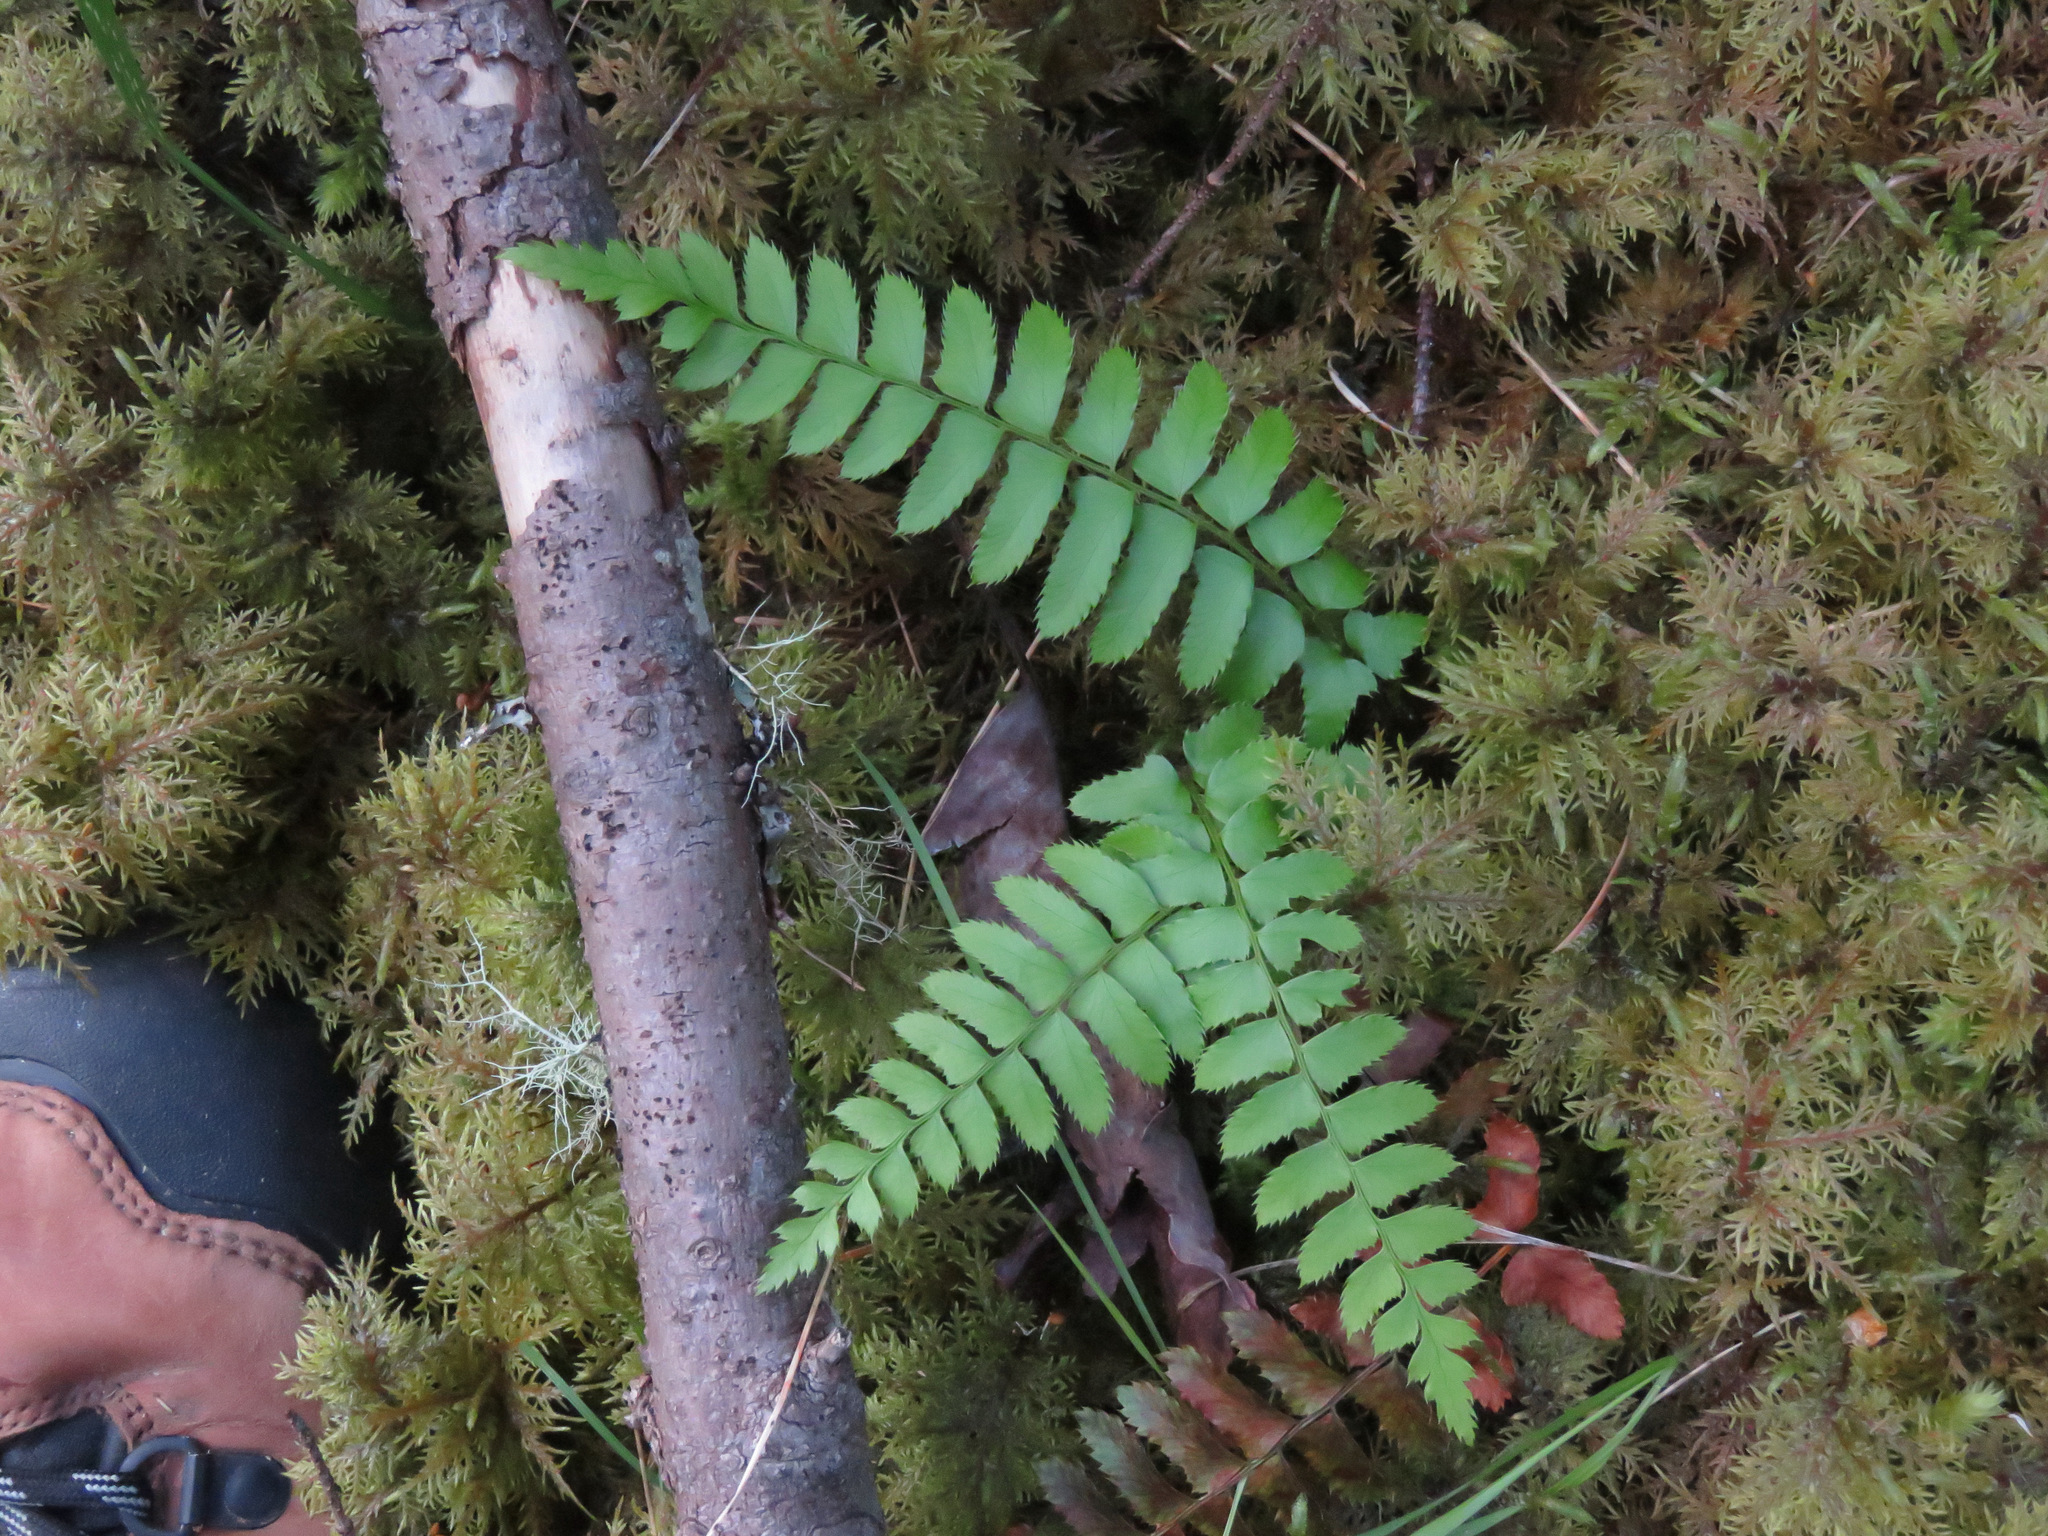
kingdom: Plantae
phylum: Tracheophyta
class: Polypodiopsida
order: Polypodiales
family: Dryopteridaceae
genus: Polystichum
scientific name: Polystichum munitum
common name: Western sword-fern
